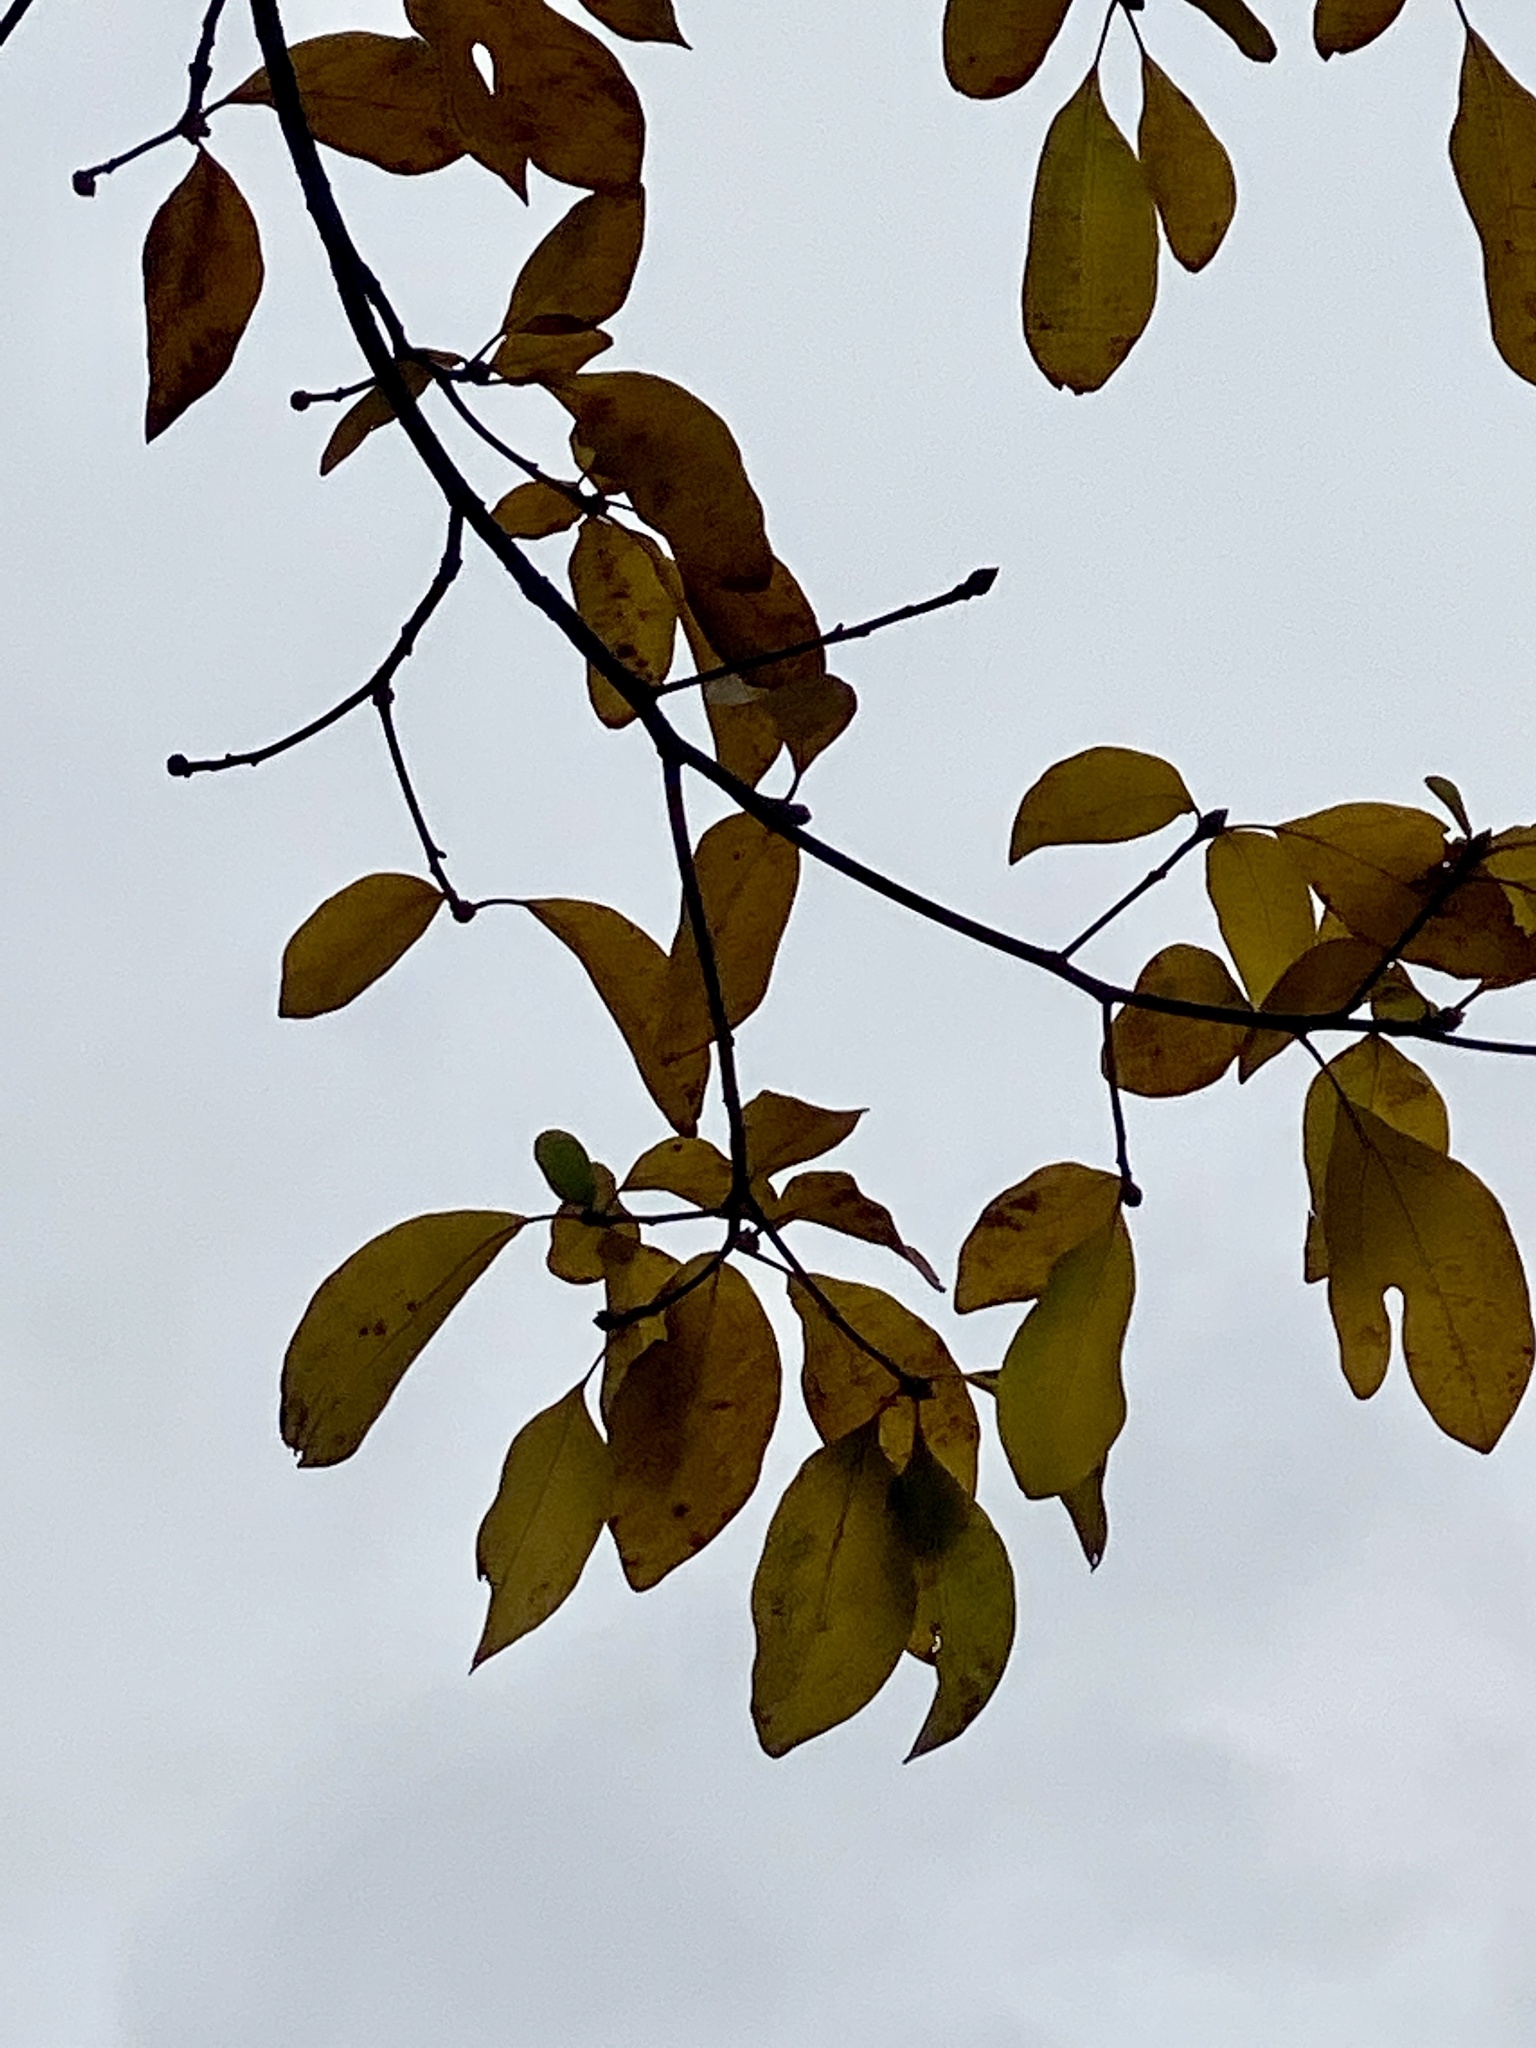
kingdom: Plantae
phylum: Tracheophyta
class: Magnoliopsida
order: Laurales
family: Lauraceae
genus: Sassafras
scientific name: Sassafras albidum
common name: Sassafras
